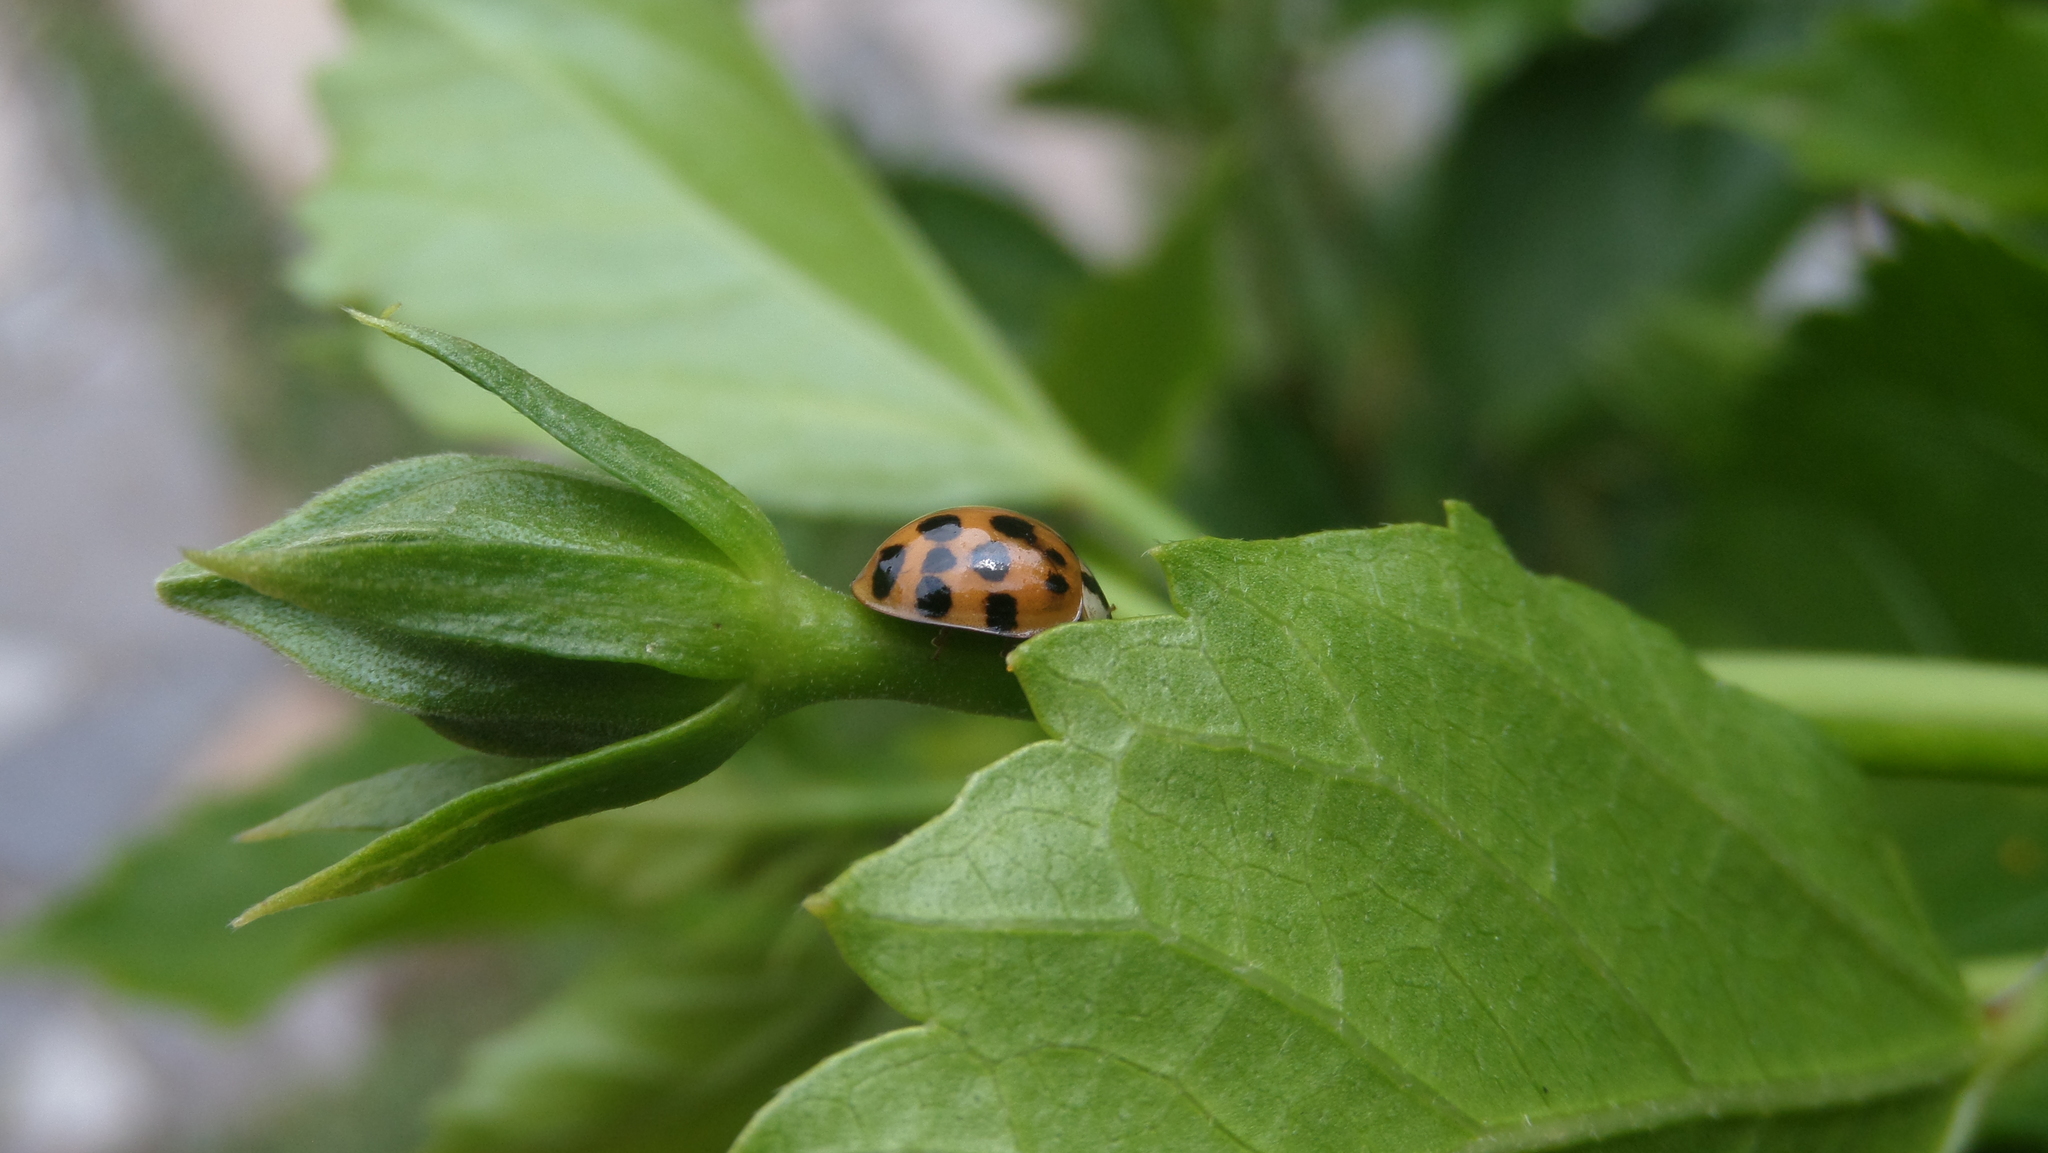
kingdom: Animalia
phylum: Arthropoda
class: Insecta
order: Coleoptera
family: Coccinellidae
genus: Harmonia
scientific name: Harmonia axyridis
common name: Harlequin ladybird
